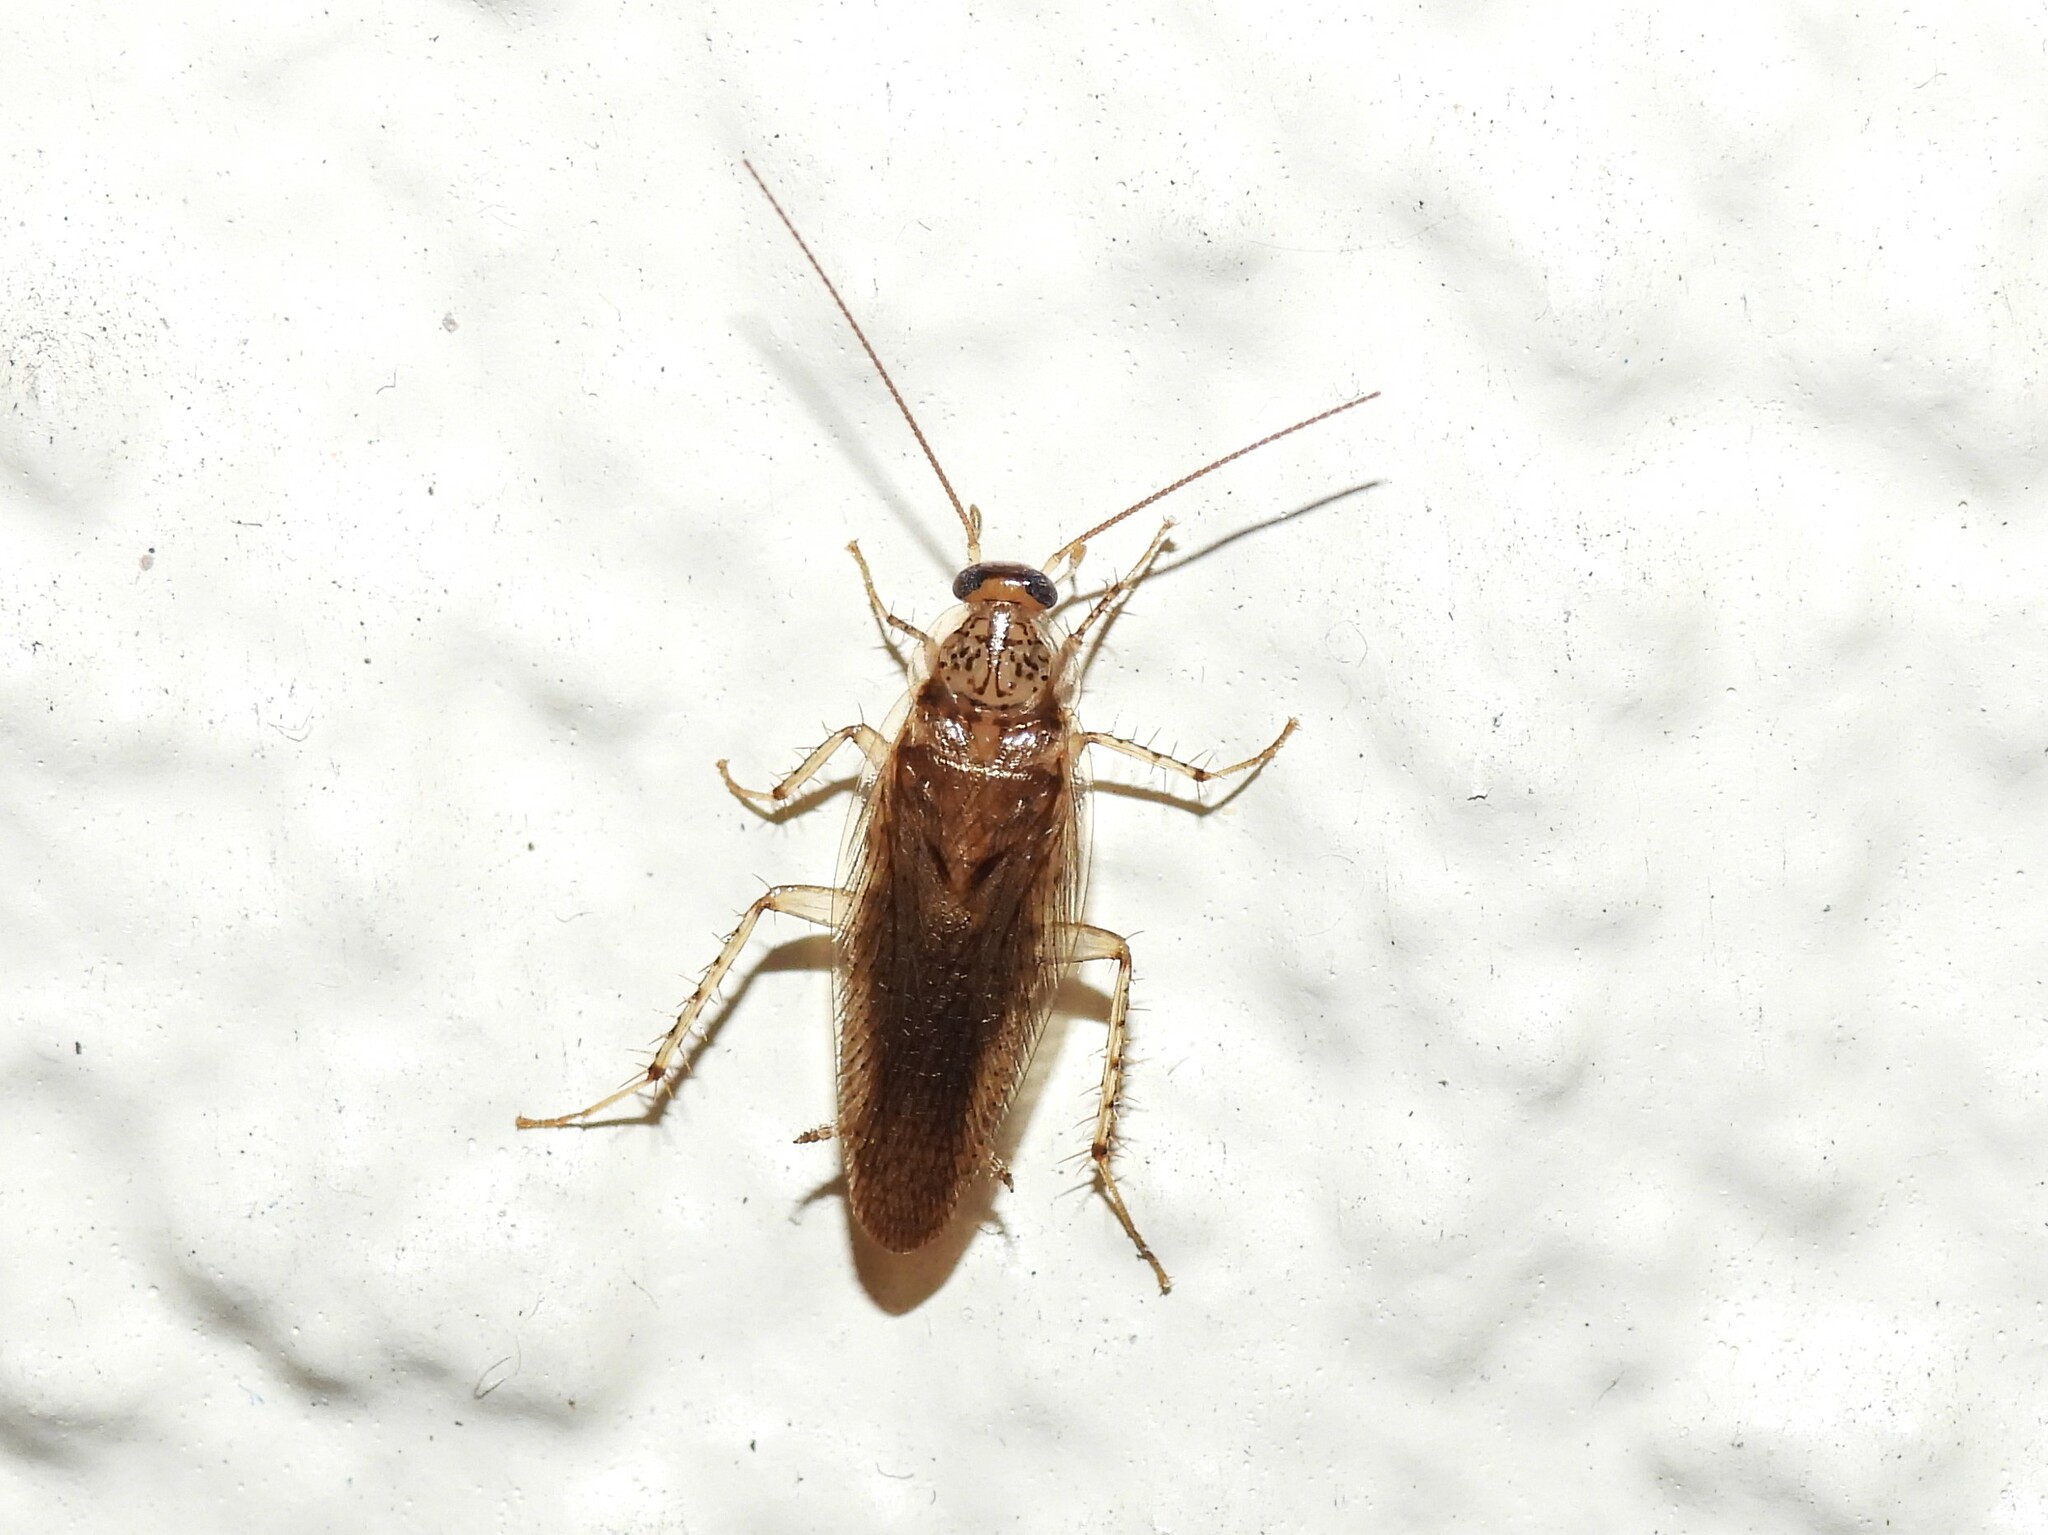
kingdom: Animalia
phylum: Arthropoda
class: Insecta
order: Blattodea
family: Ectobiidae
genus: Neoblattella
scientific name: Neoblattella detersa
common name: Wood cockroach
